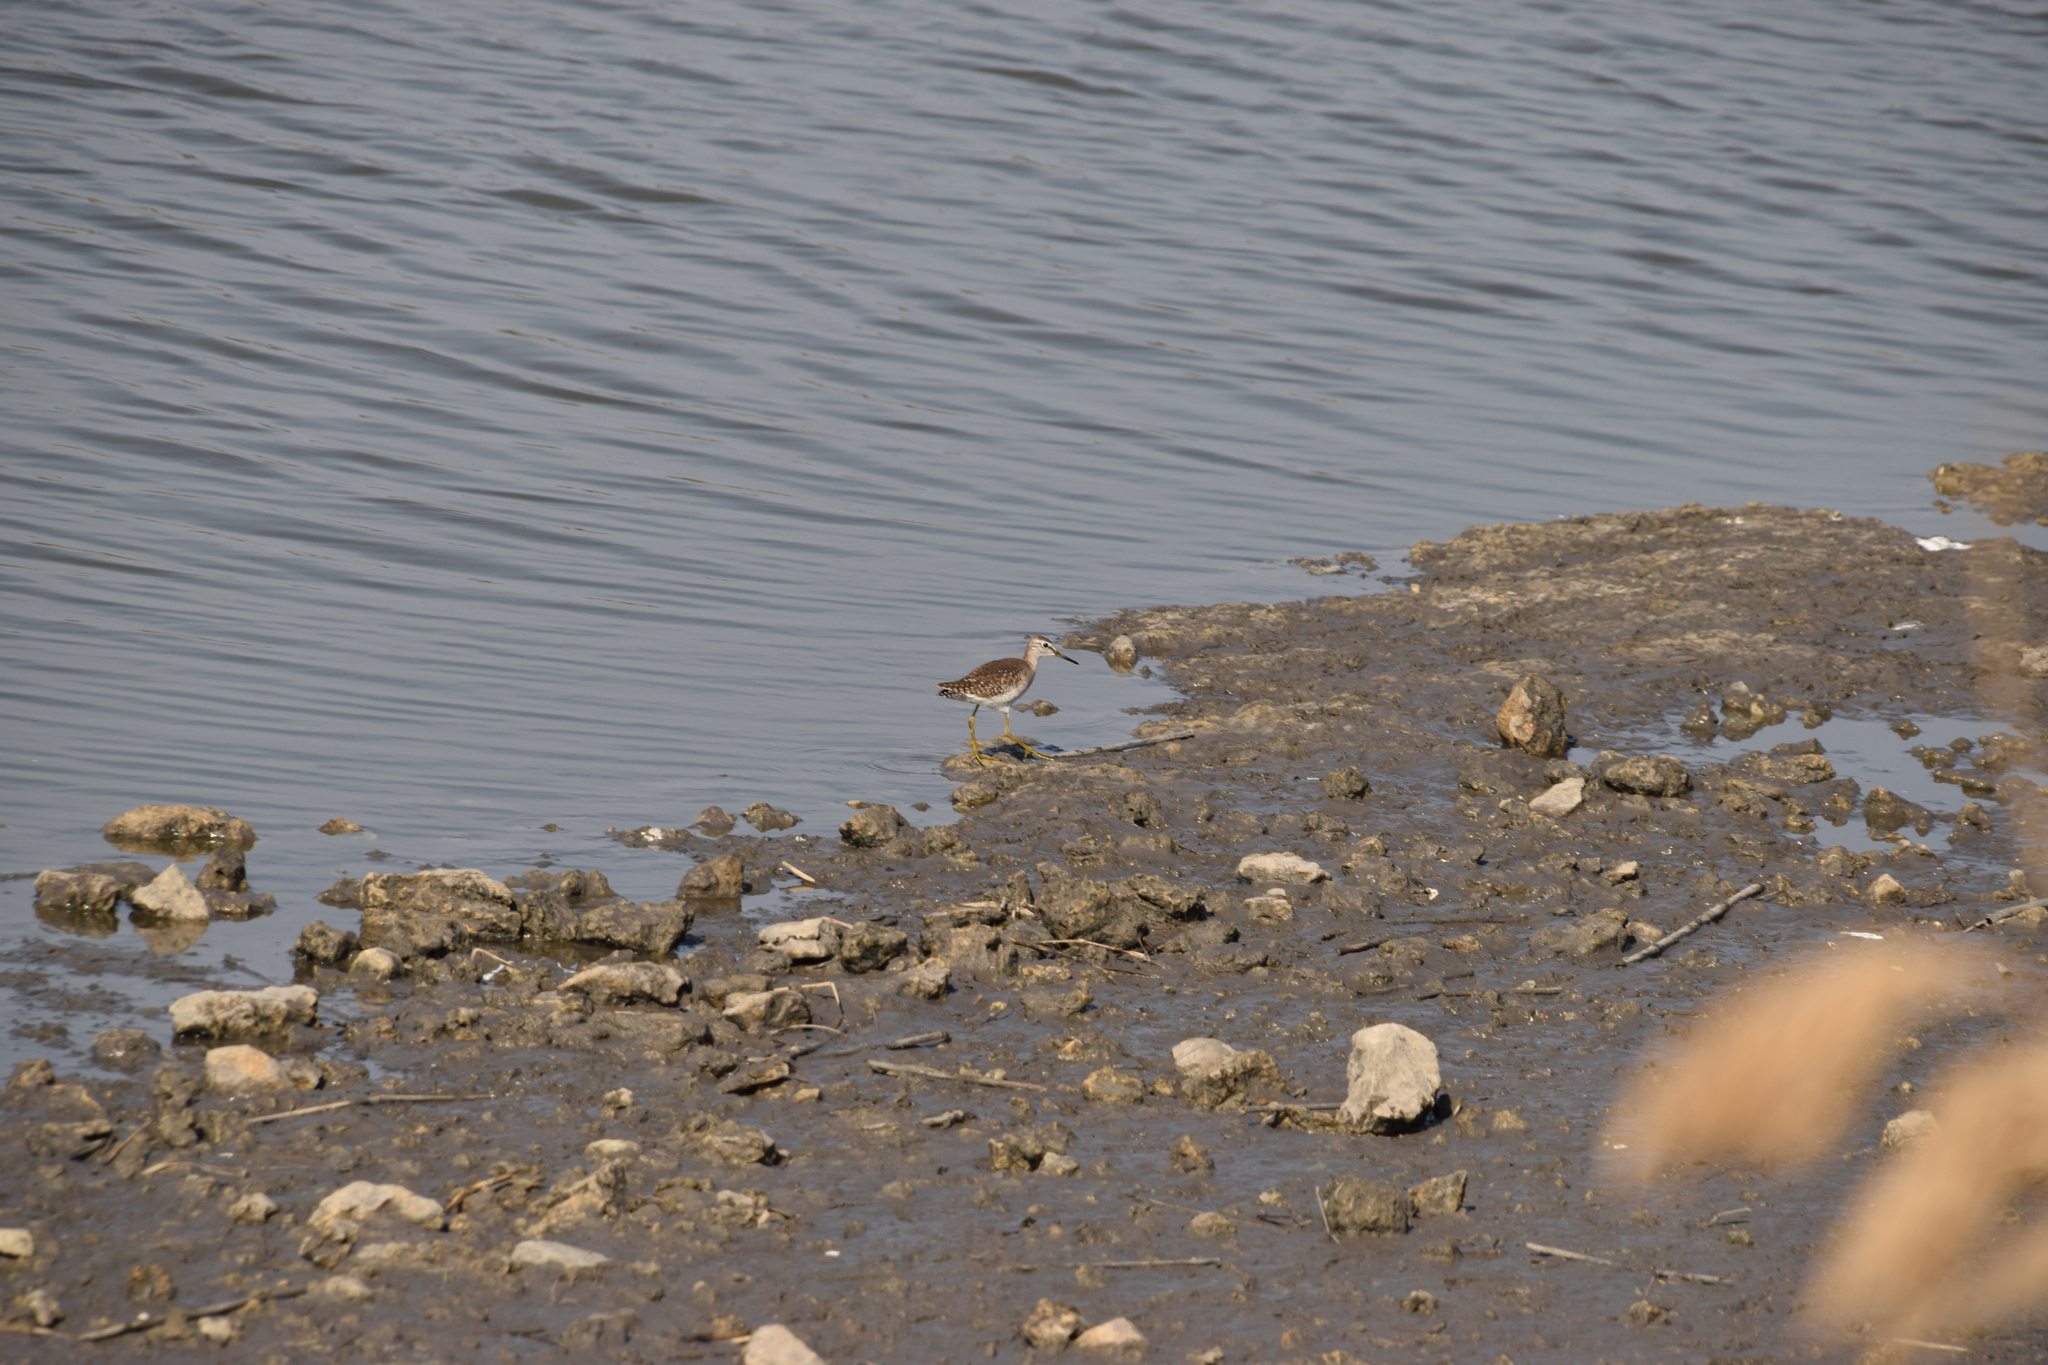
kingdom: Animalia
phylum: Chordata
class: Aves
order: Charadriiformes
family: Scolopacidae
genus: Tringa
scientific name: Tringa glareola
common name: Wood sandpiper
